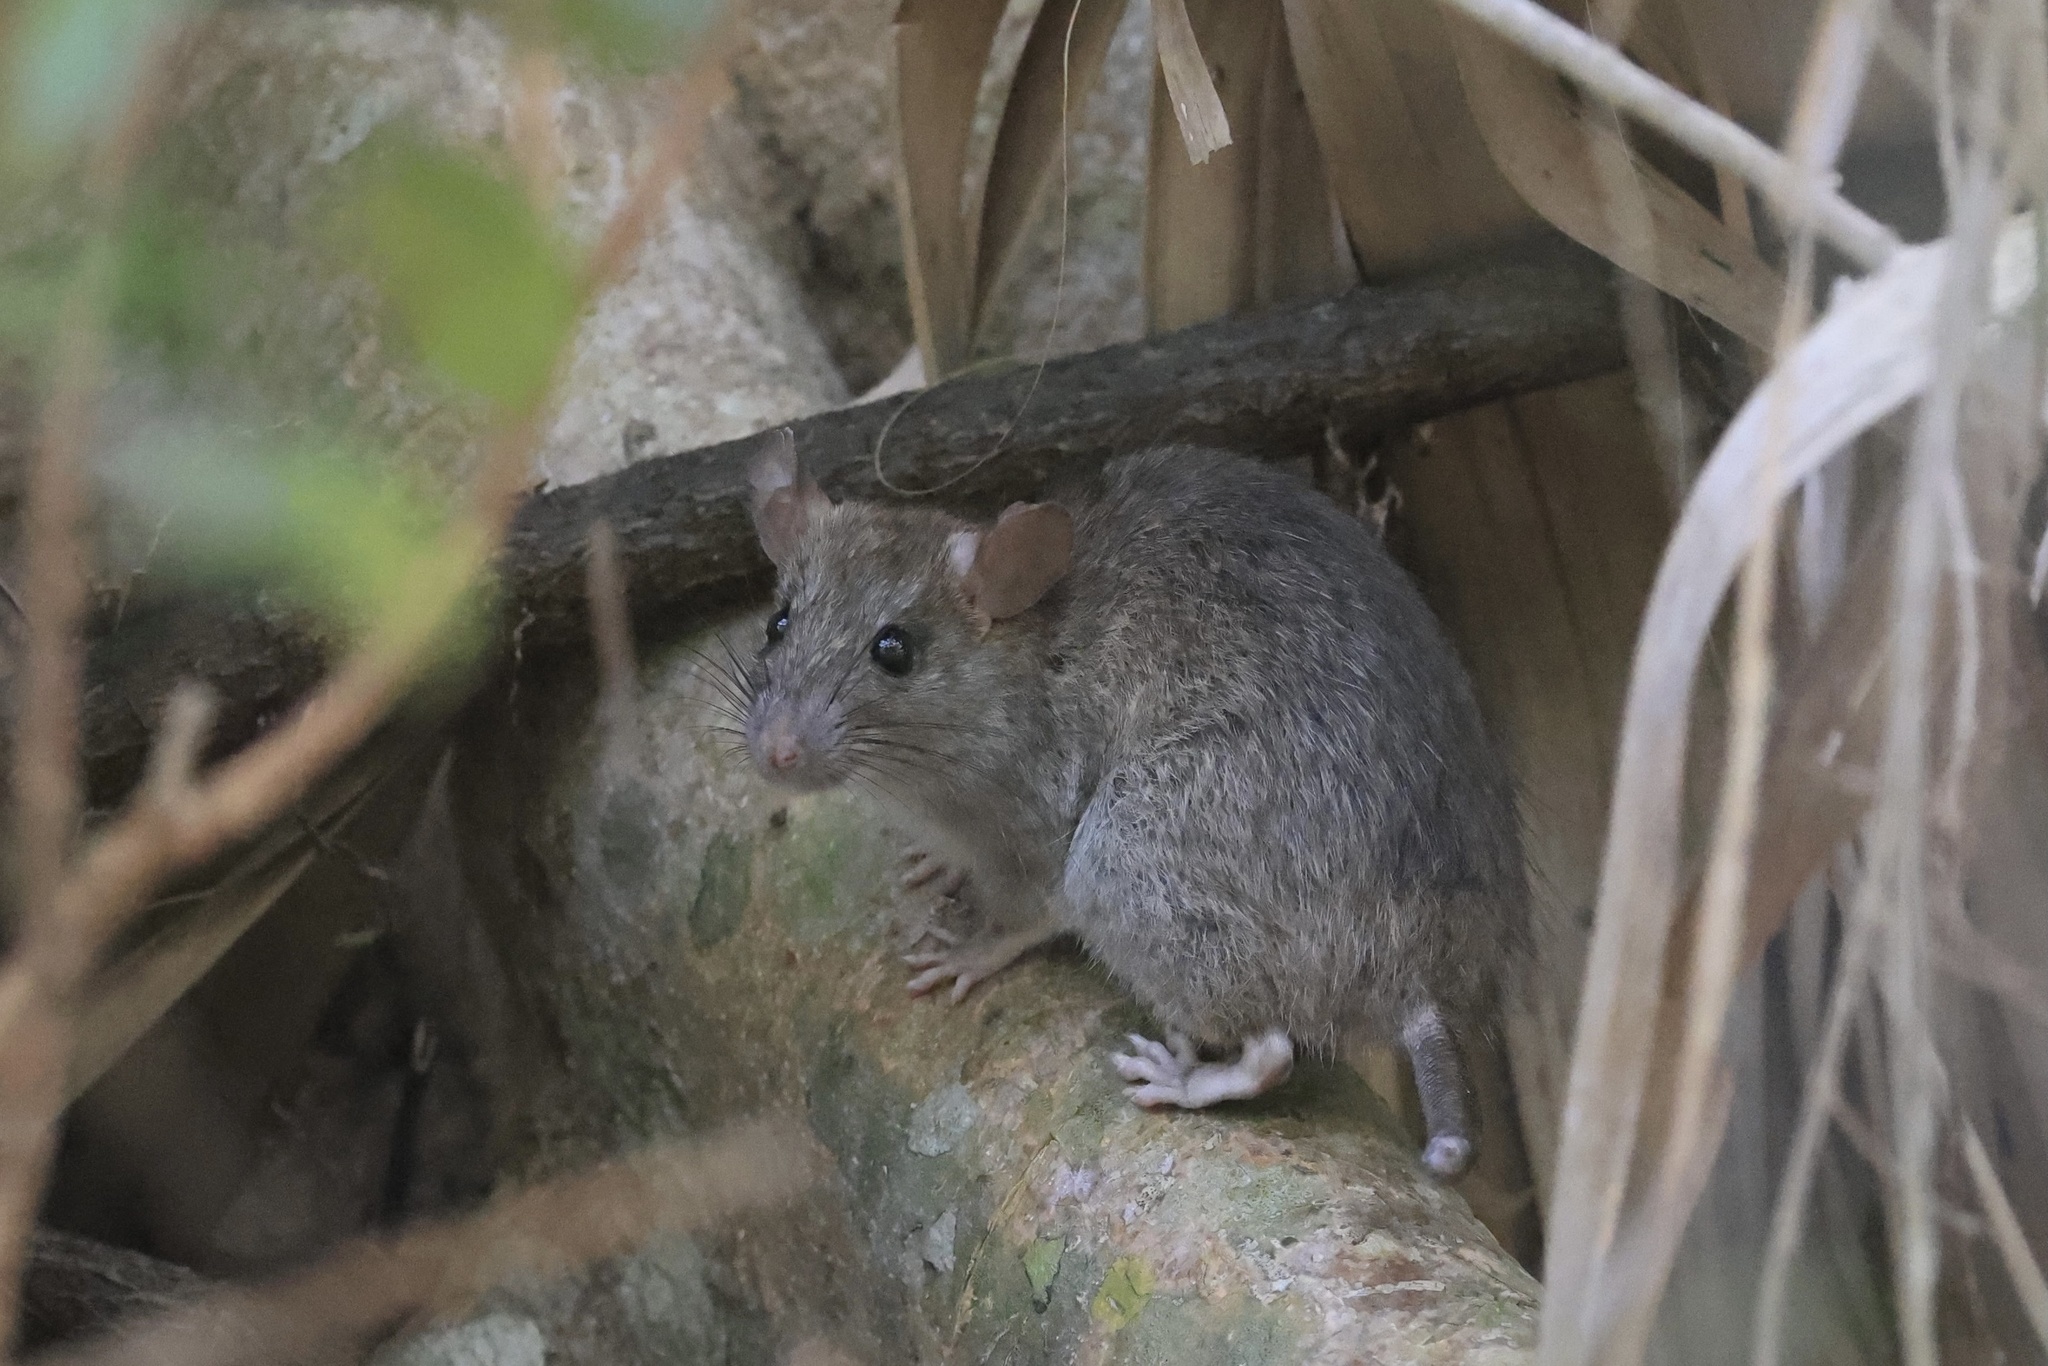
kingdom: Animalia
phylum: Chordata
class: Mammalia
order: Rodentia
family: Muridae
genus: Rattus
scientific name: Rattus rattus
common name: Black rat
